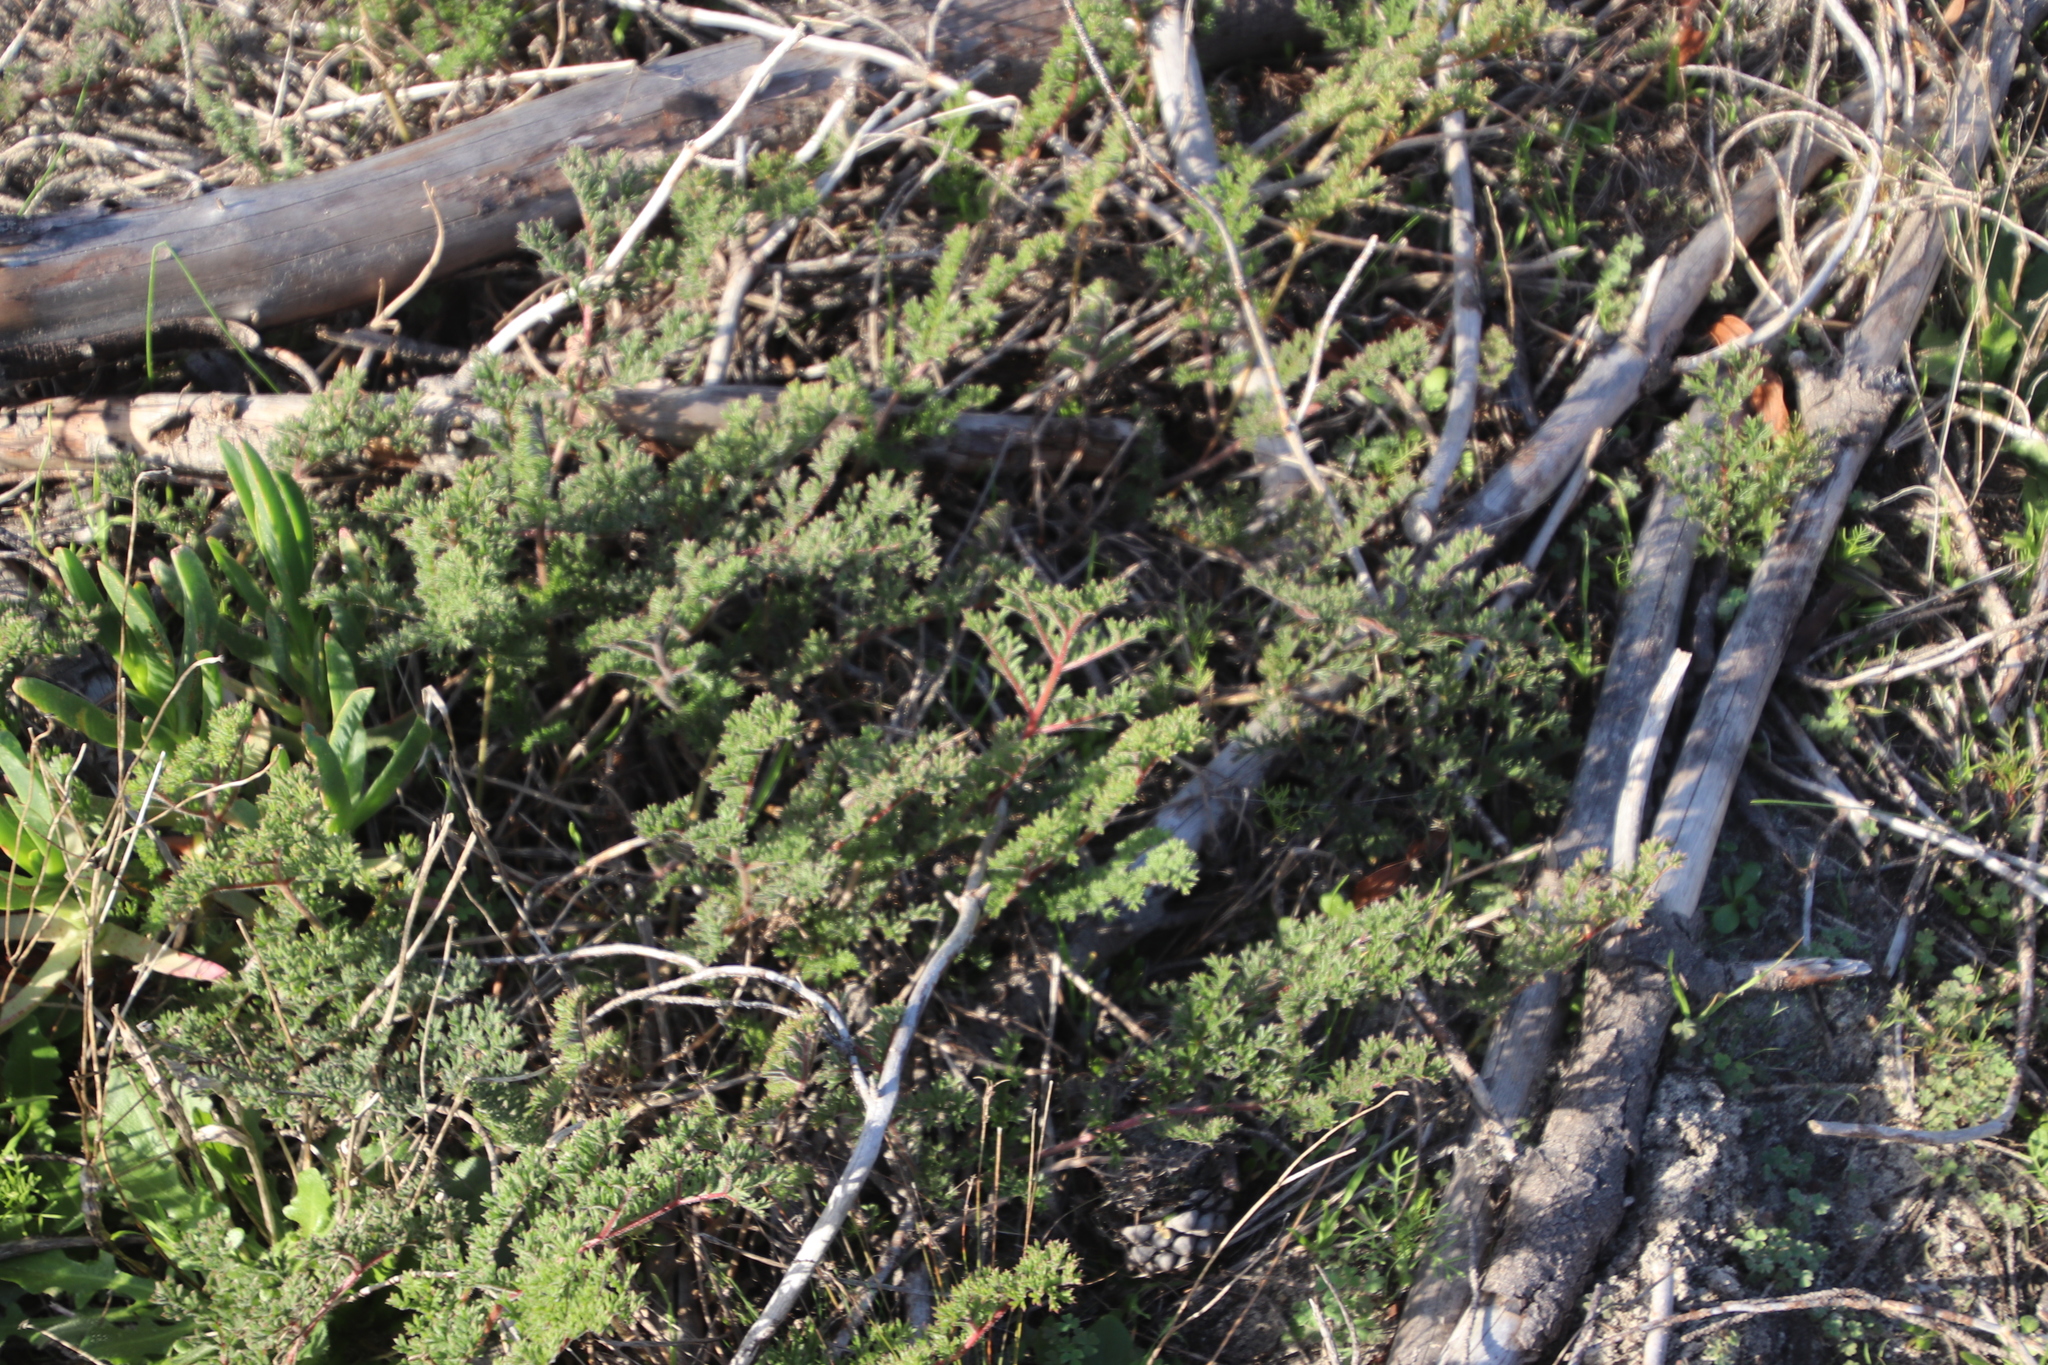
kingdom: Plantae
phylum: Tracheophyta
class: Magnoliopsida
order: Geraniales
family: Geraniaceae
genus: Pelargonium
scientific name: Pelargonium triste
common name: Night-scent pelargonium
